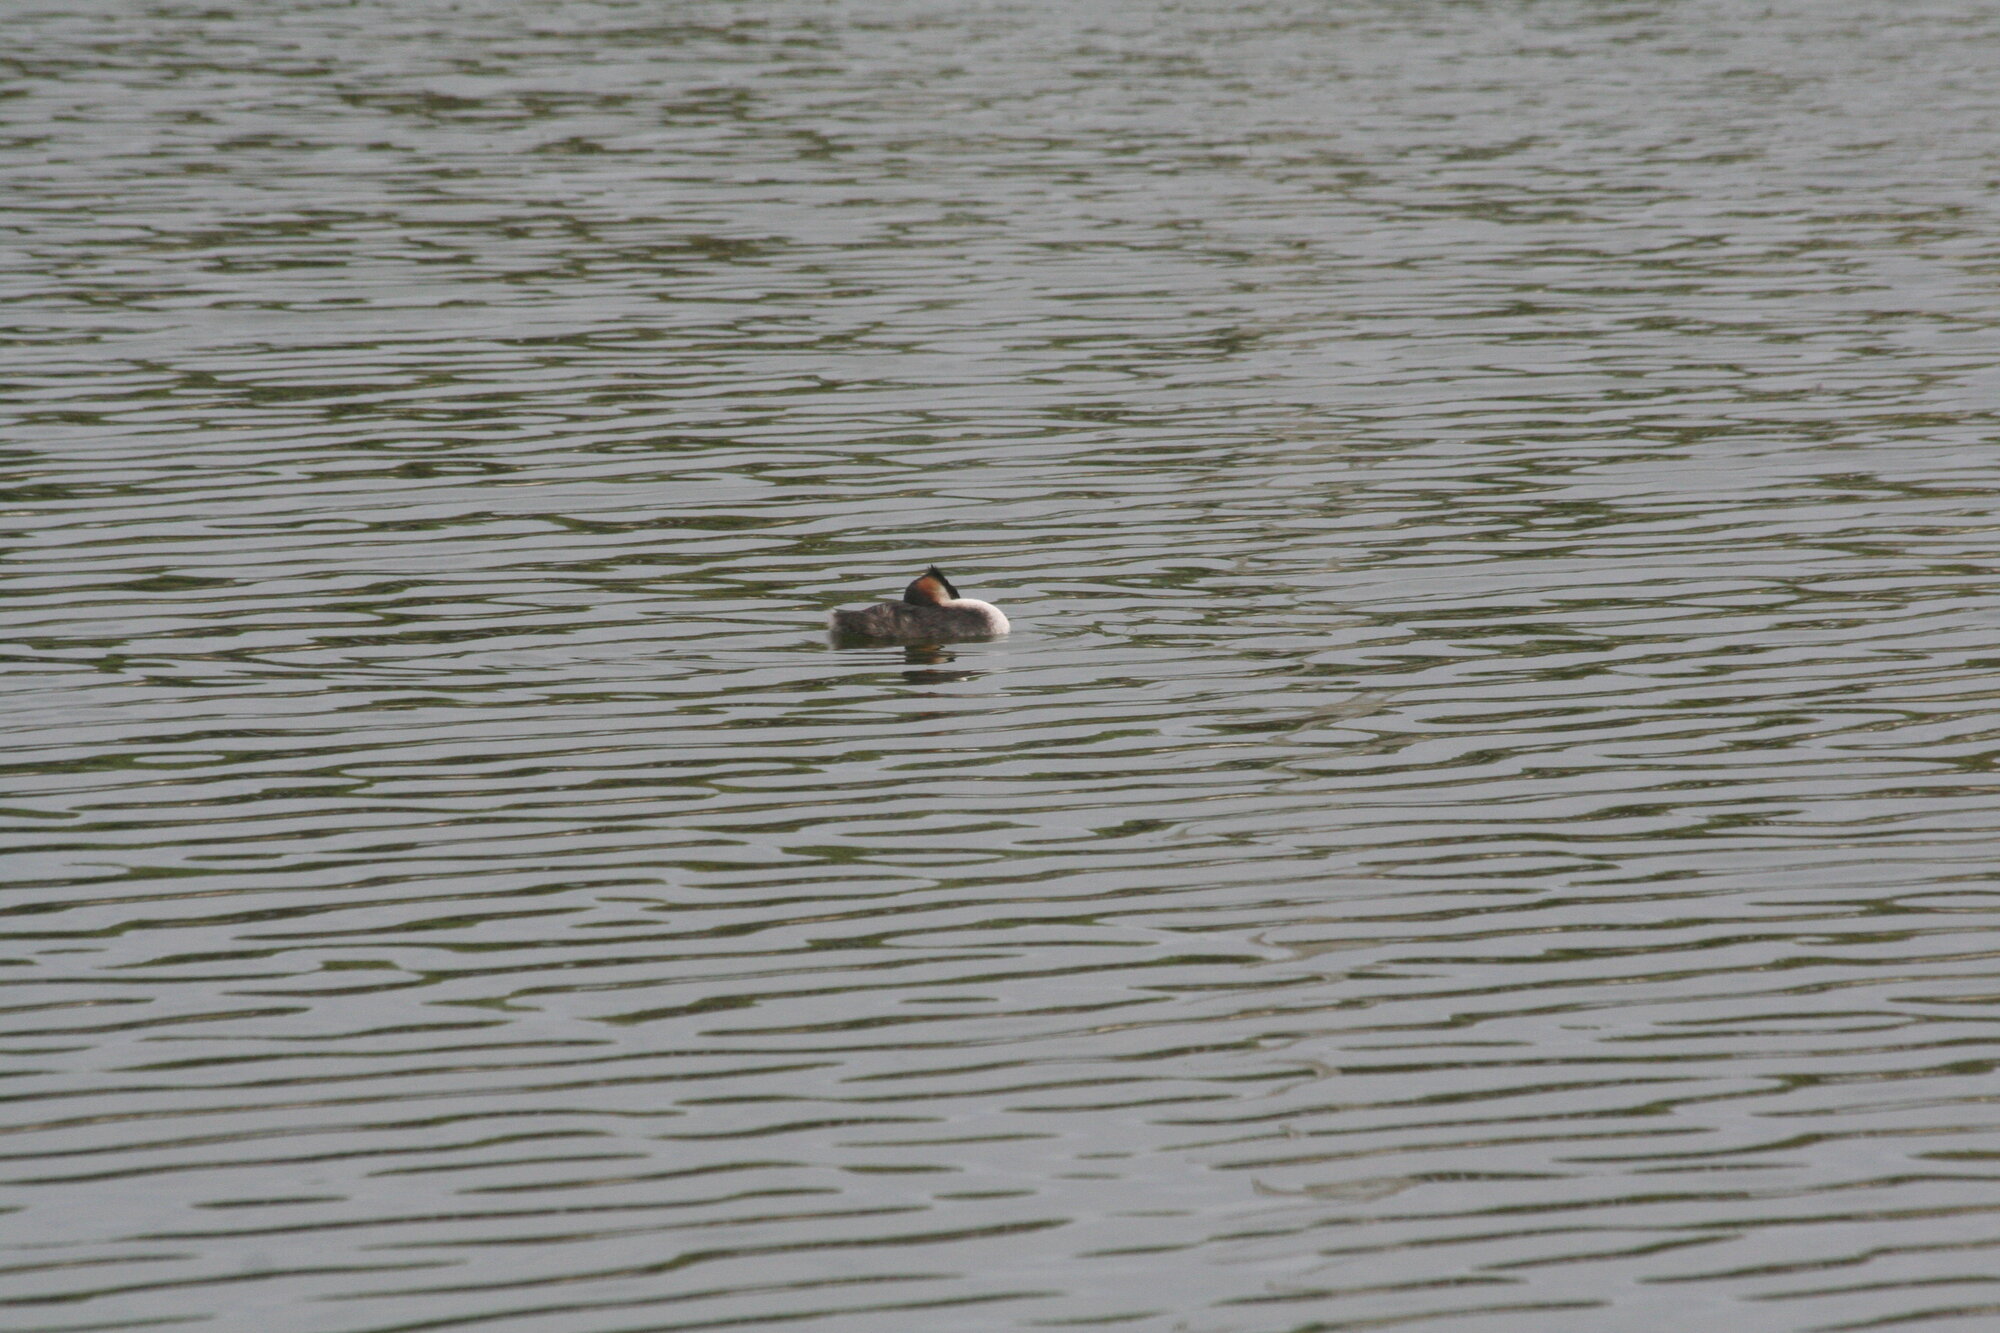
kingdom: Animalia
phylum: Chordata
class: Aves
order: Podicipediformes
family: Podicipedidae
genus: Podiceps
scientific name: Podiceps cristatus
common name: Great crested grebe
